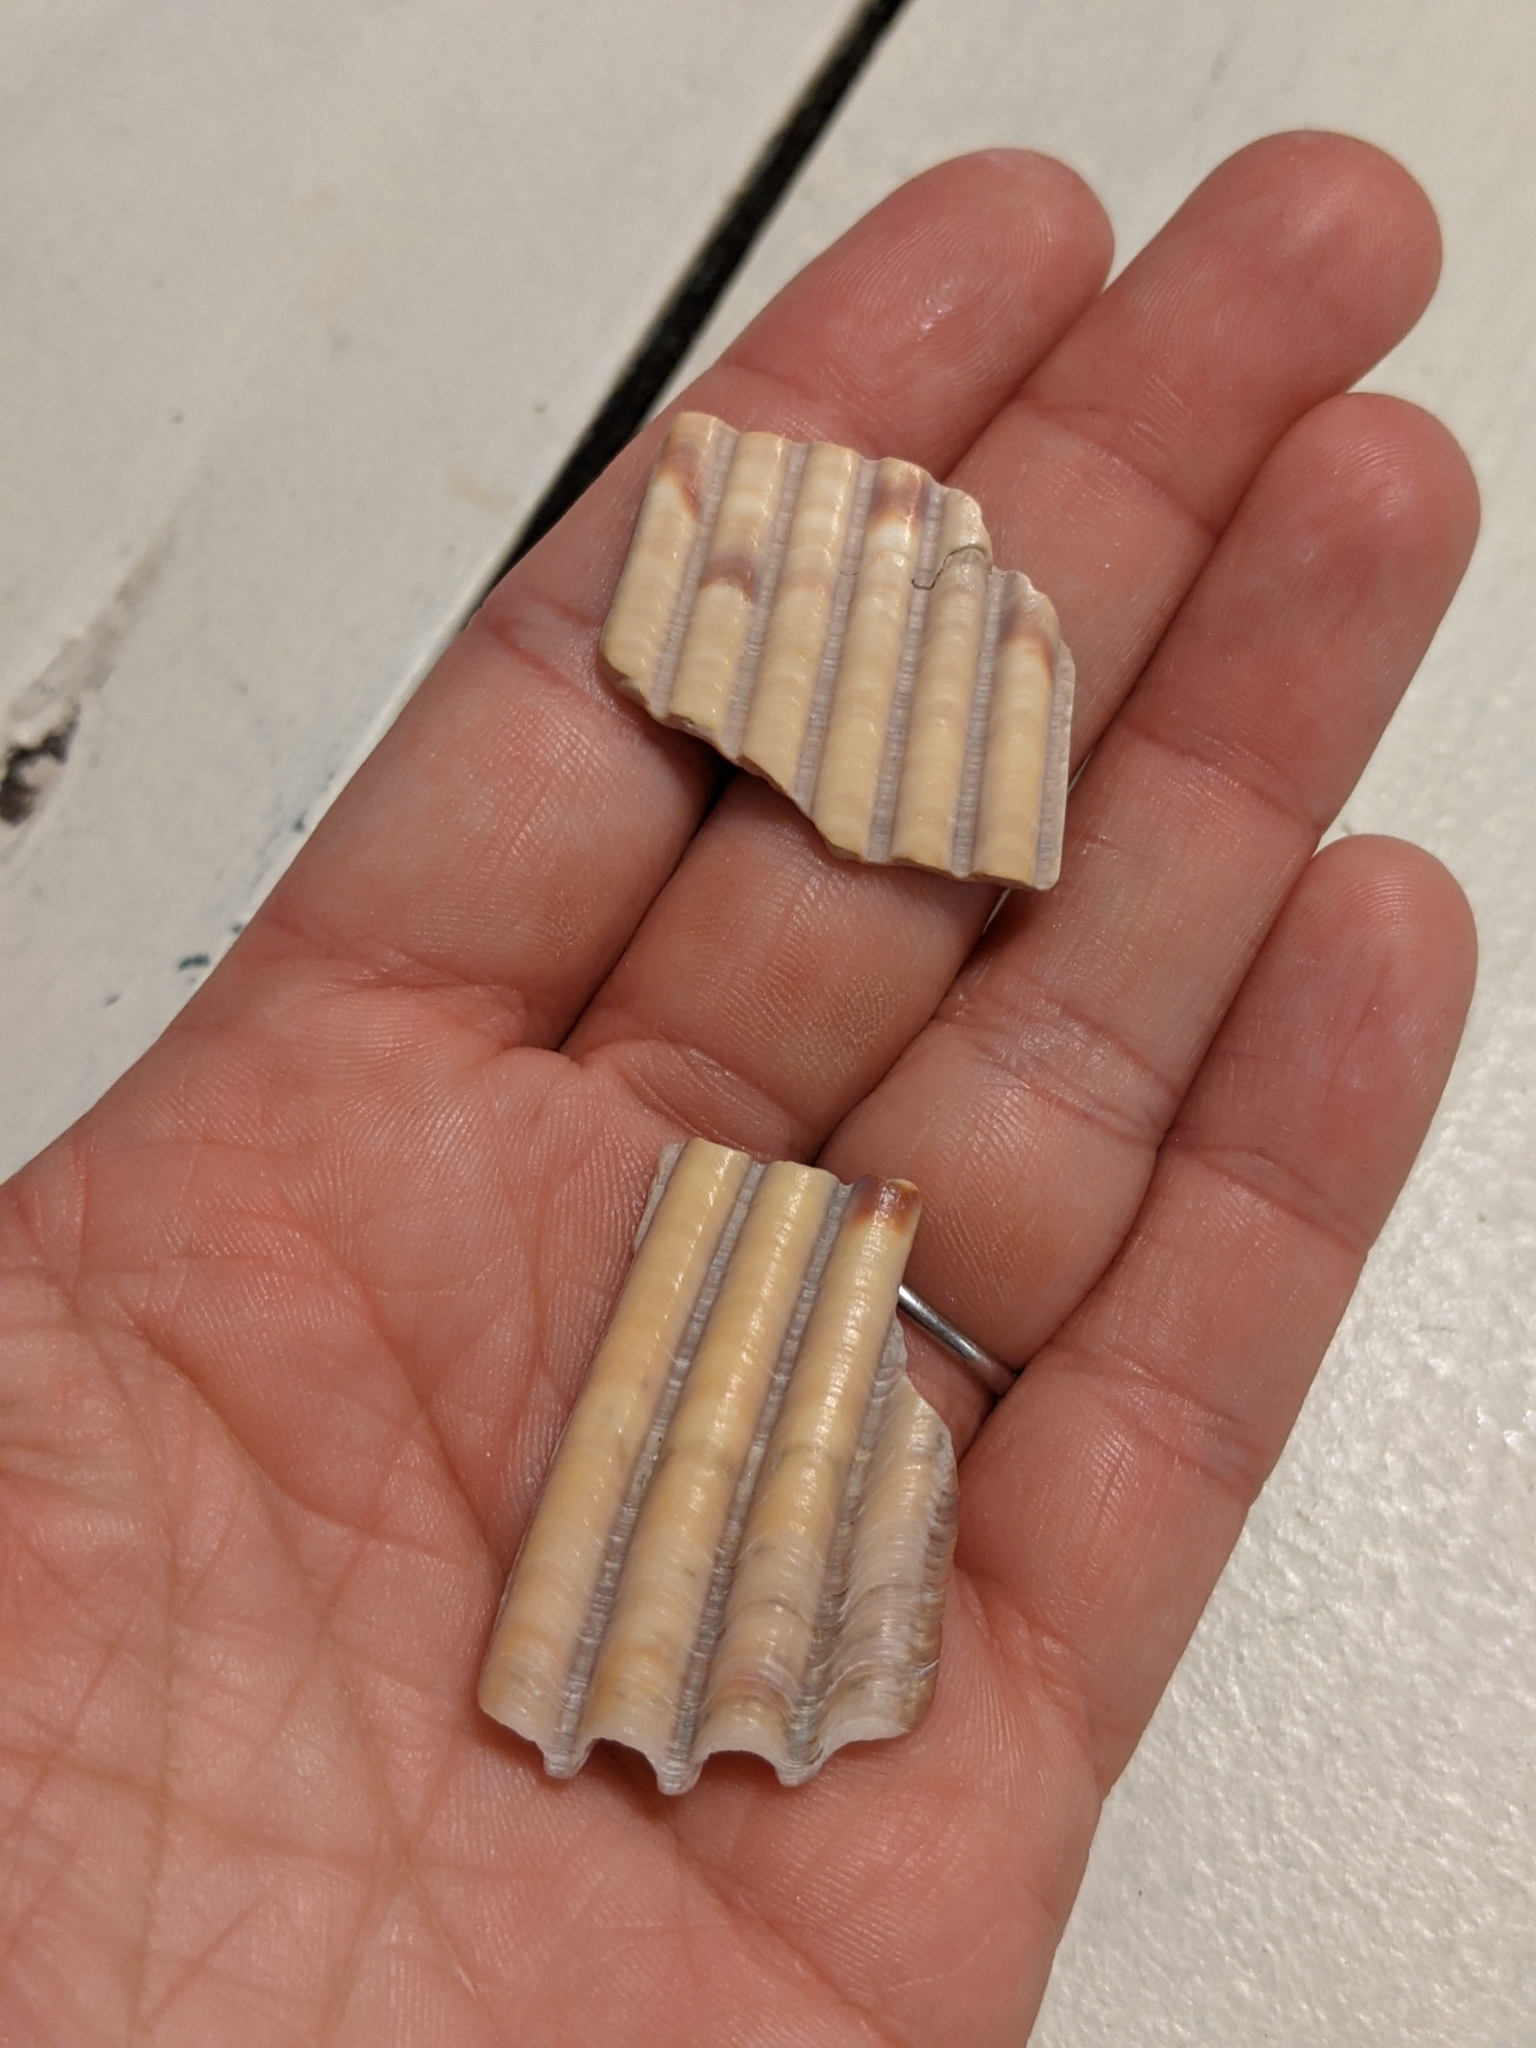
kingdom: Animalia
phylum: Mollusca
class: Bivalvia
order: Cardiida
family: Cardiidae
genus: Dinocardium
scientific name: Dinocardium robustum
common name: Atlantic giant cockle
